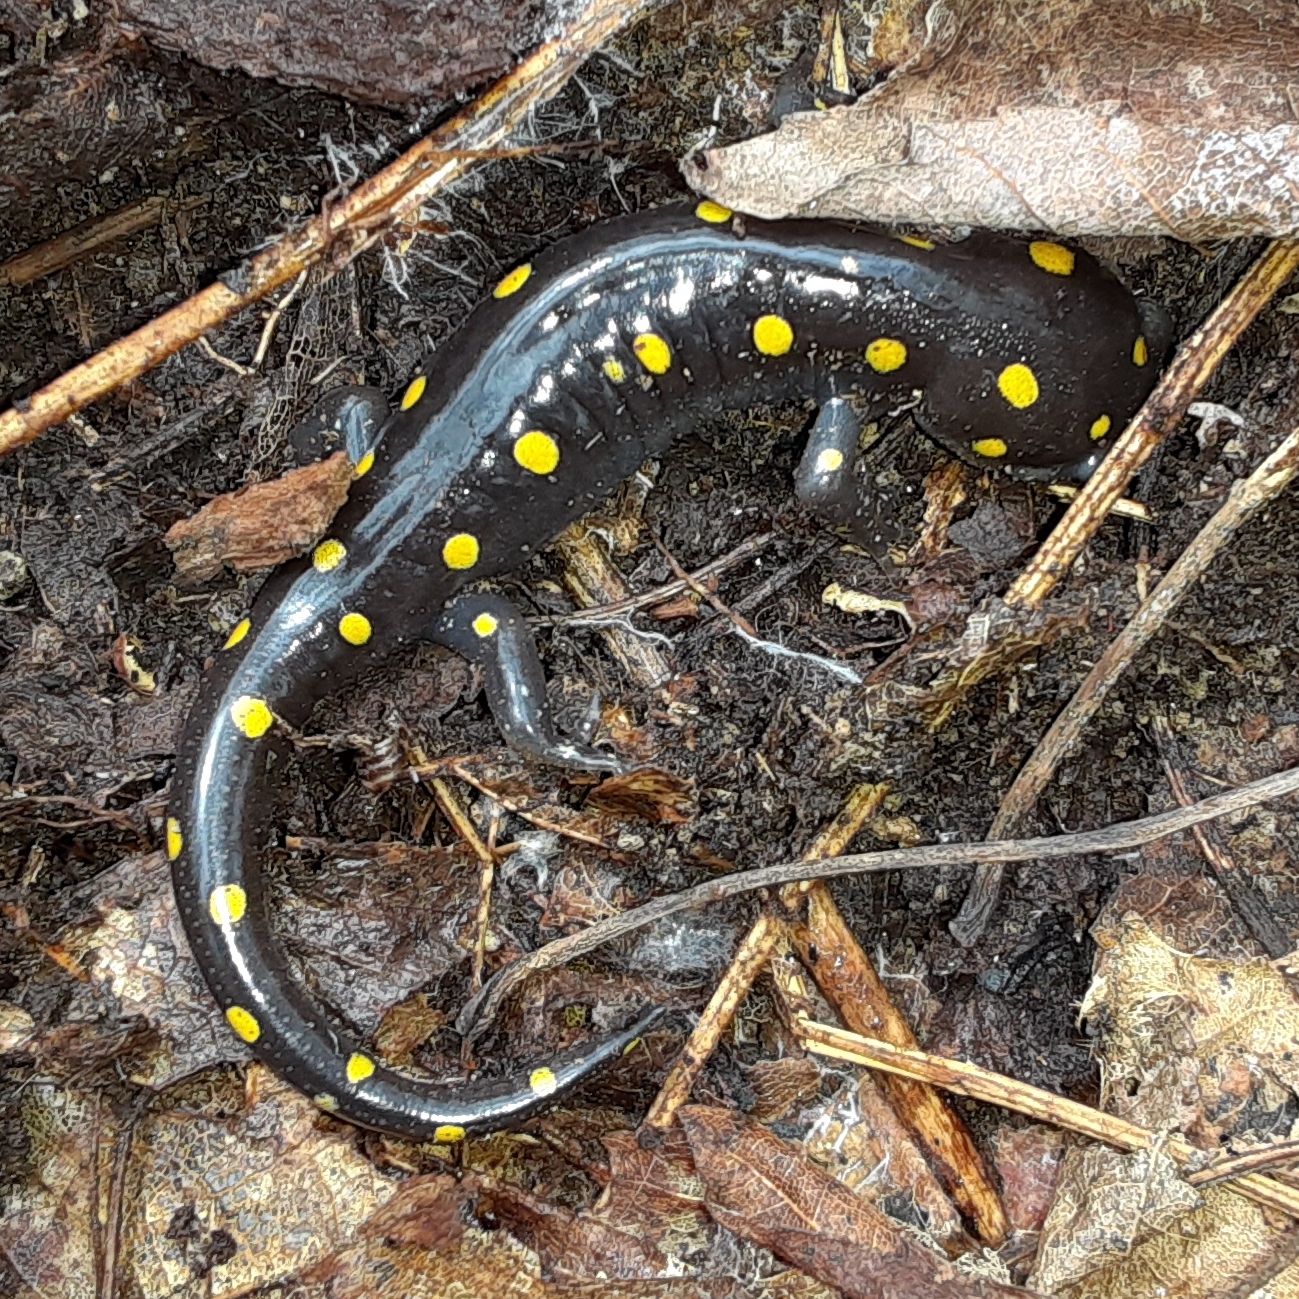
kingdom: Animalia
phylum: Chordata
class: Amphibia
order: Caudata
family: Ambystomatidae
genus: Ambystoma
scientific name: Ambystoma maculatum
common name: Spotted salamander
